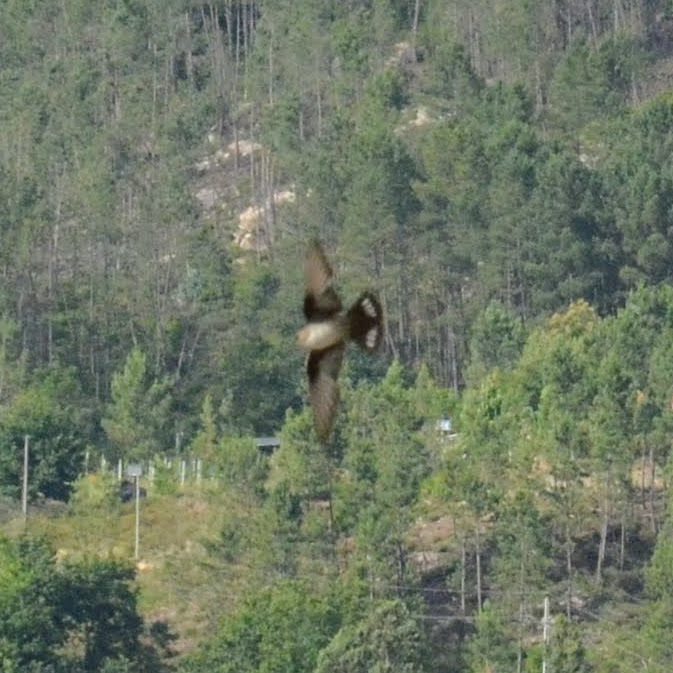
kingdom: Animalia
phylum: Chordata
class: Aves
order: Passeriformes
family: Hirundinidae
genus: Ptyonoprogne
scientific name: Ptyonoprogne rupestris
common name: Eurasian crag martin
